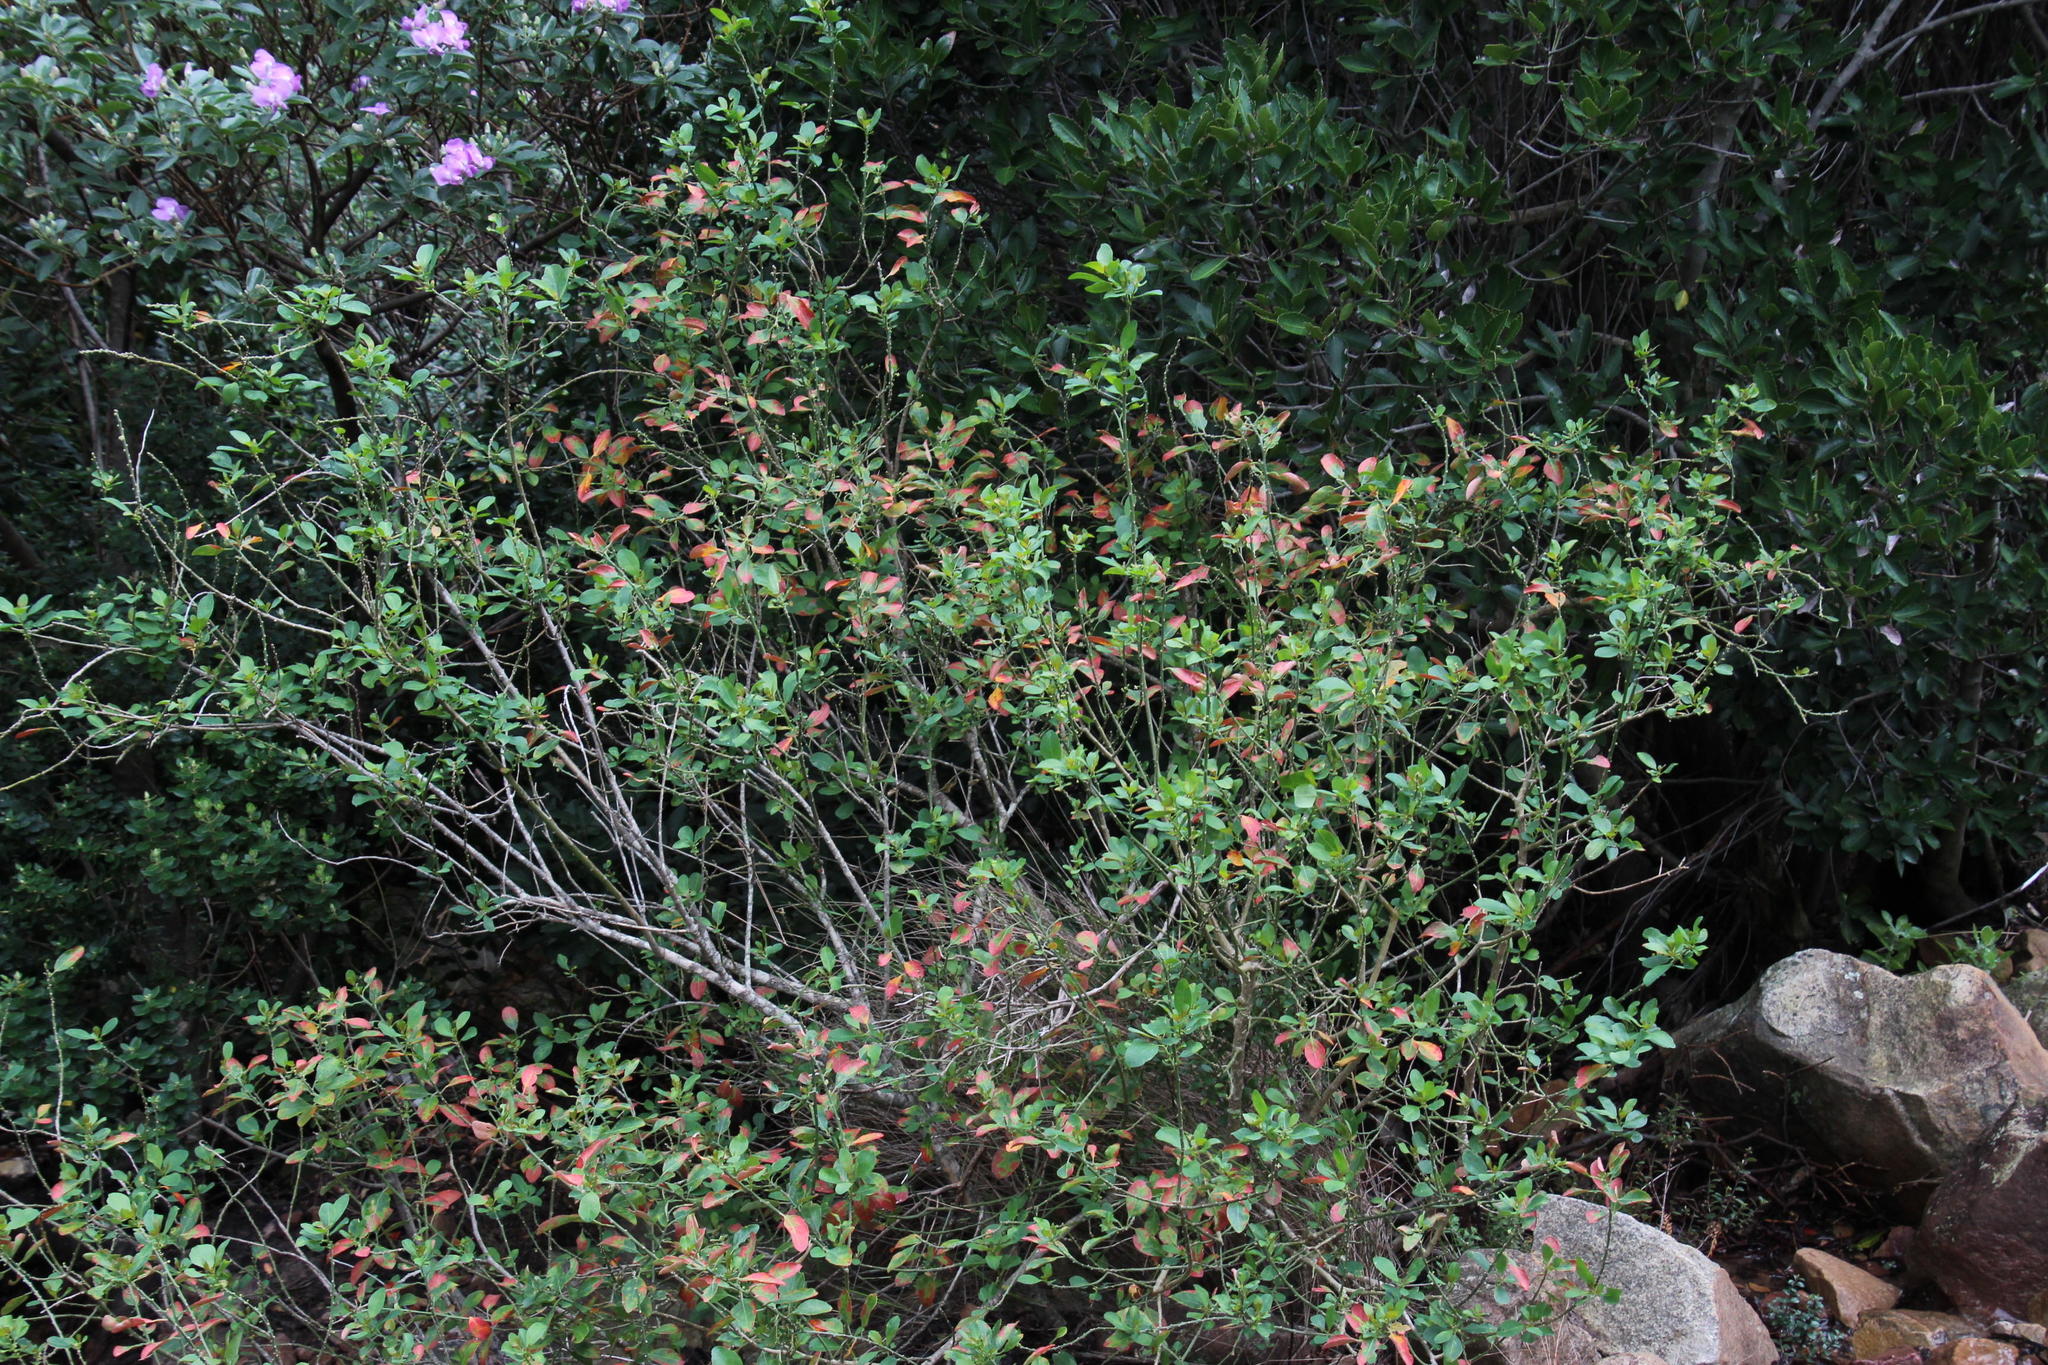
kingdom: Plantae
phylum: Tracheophyta
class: Magnoliopsida
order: Malpighiales
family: Peraceae
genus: Clutia
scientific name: Clutia pulchella
